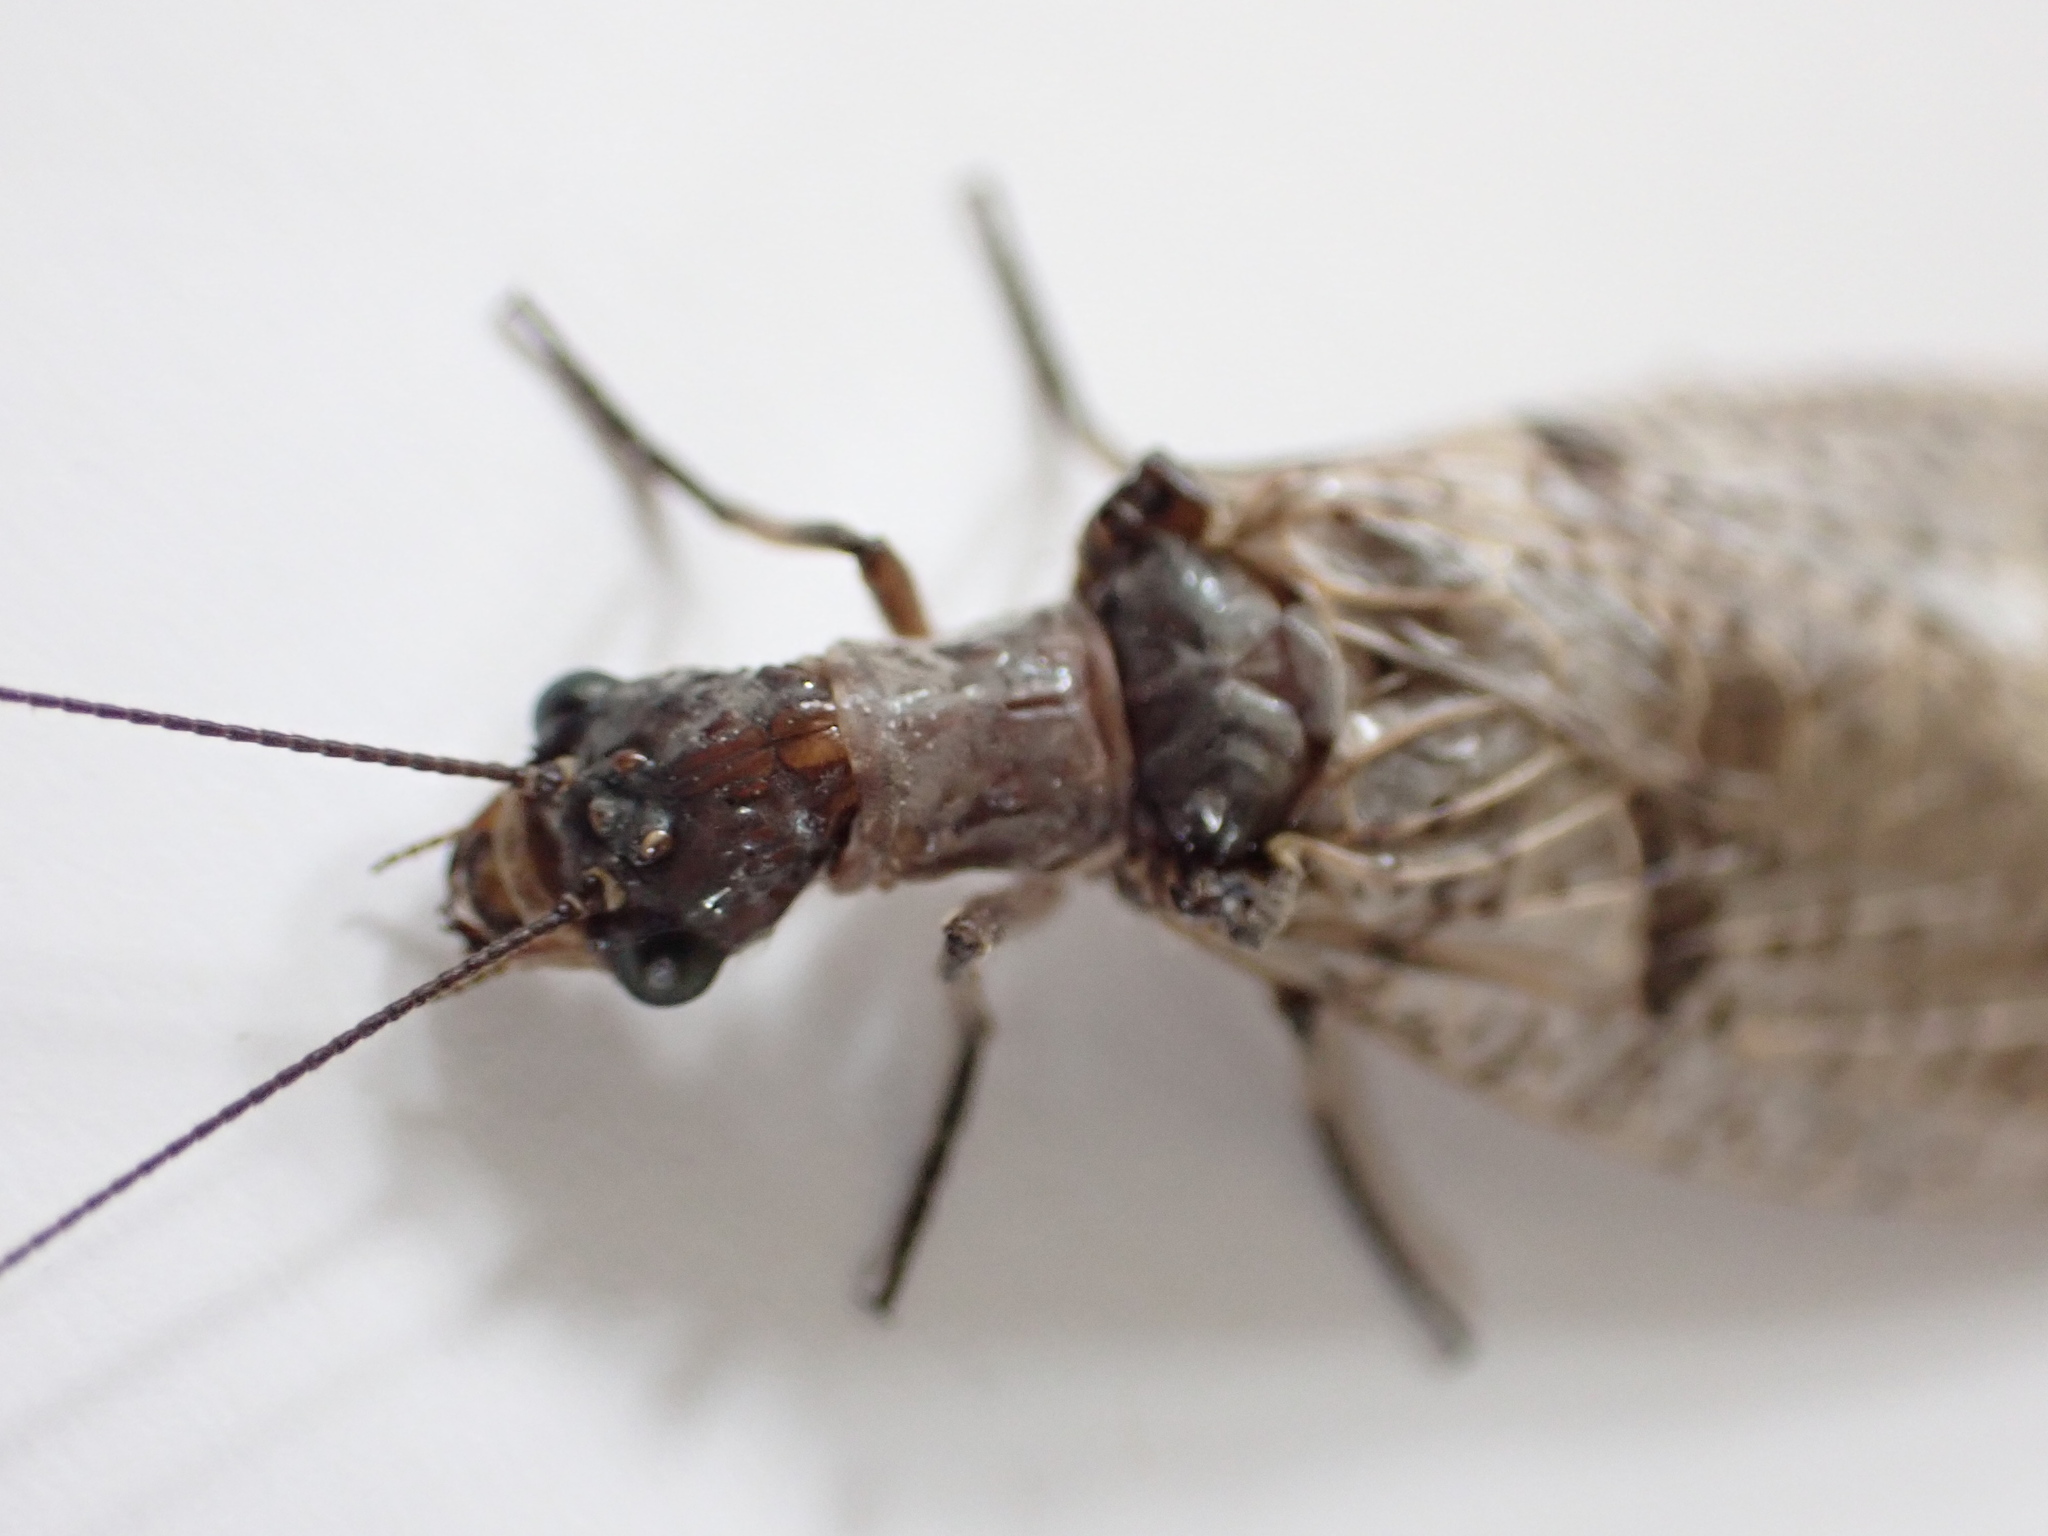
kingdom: Animalia
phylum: Arthropoda
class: Insecta
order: Megaloptera
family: Corydalidae
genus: Archichauliodes
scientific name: Archichauliodes diversus
